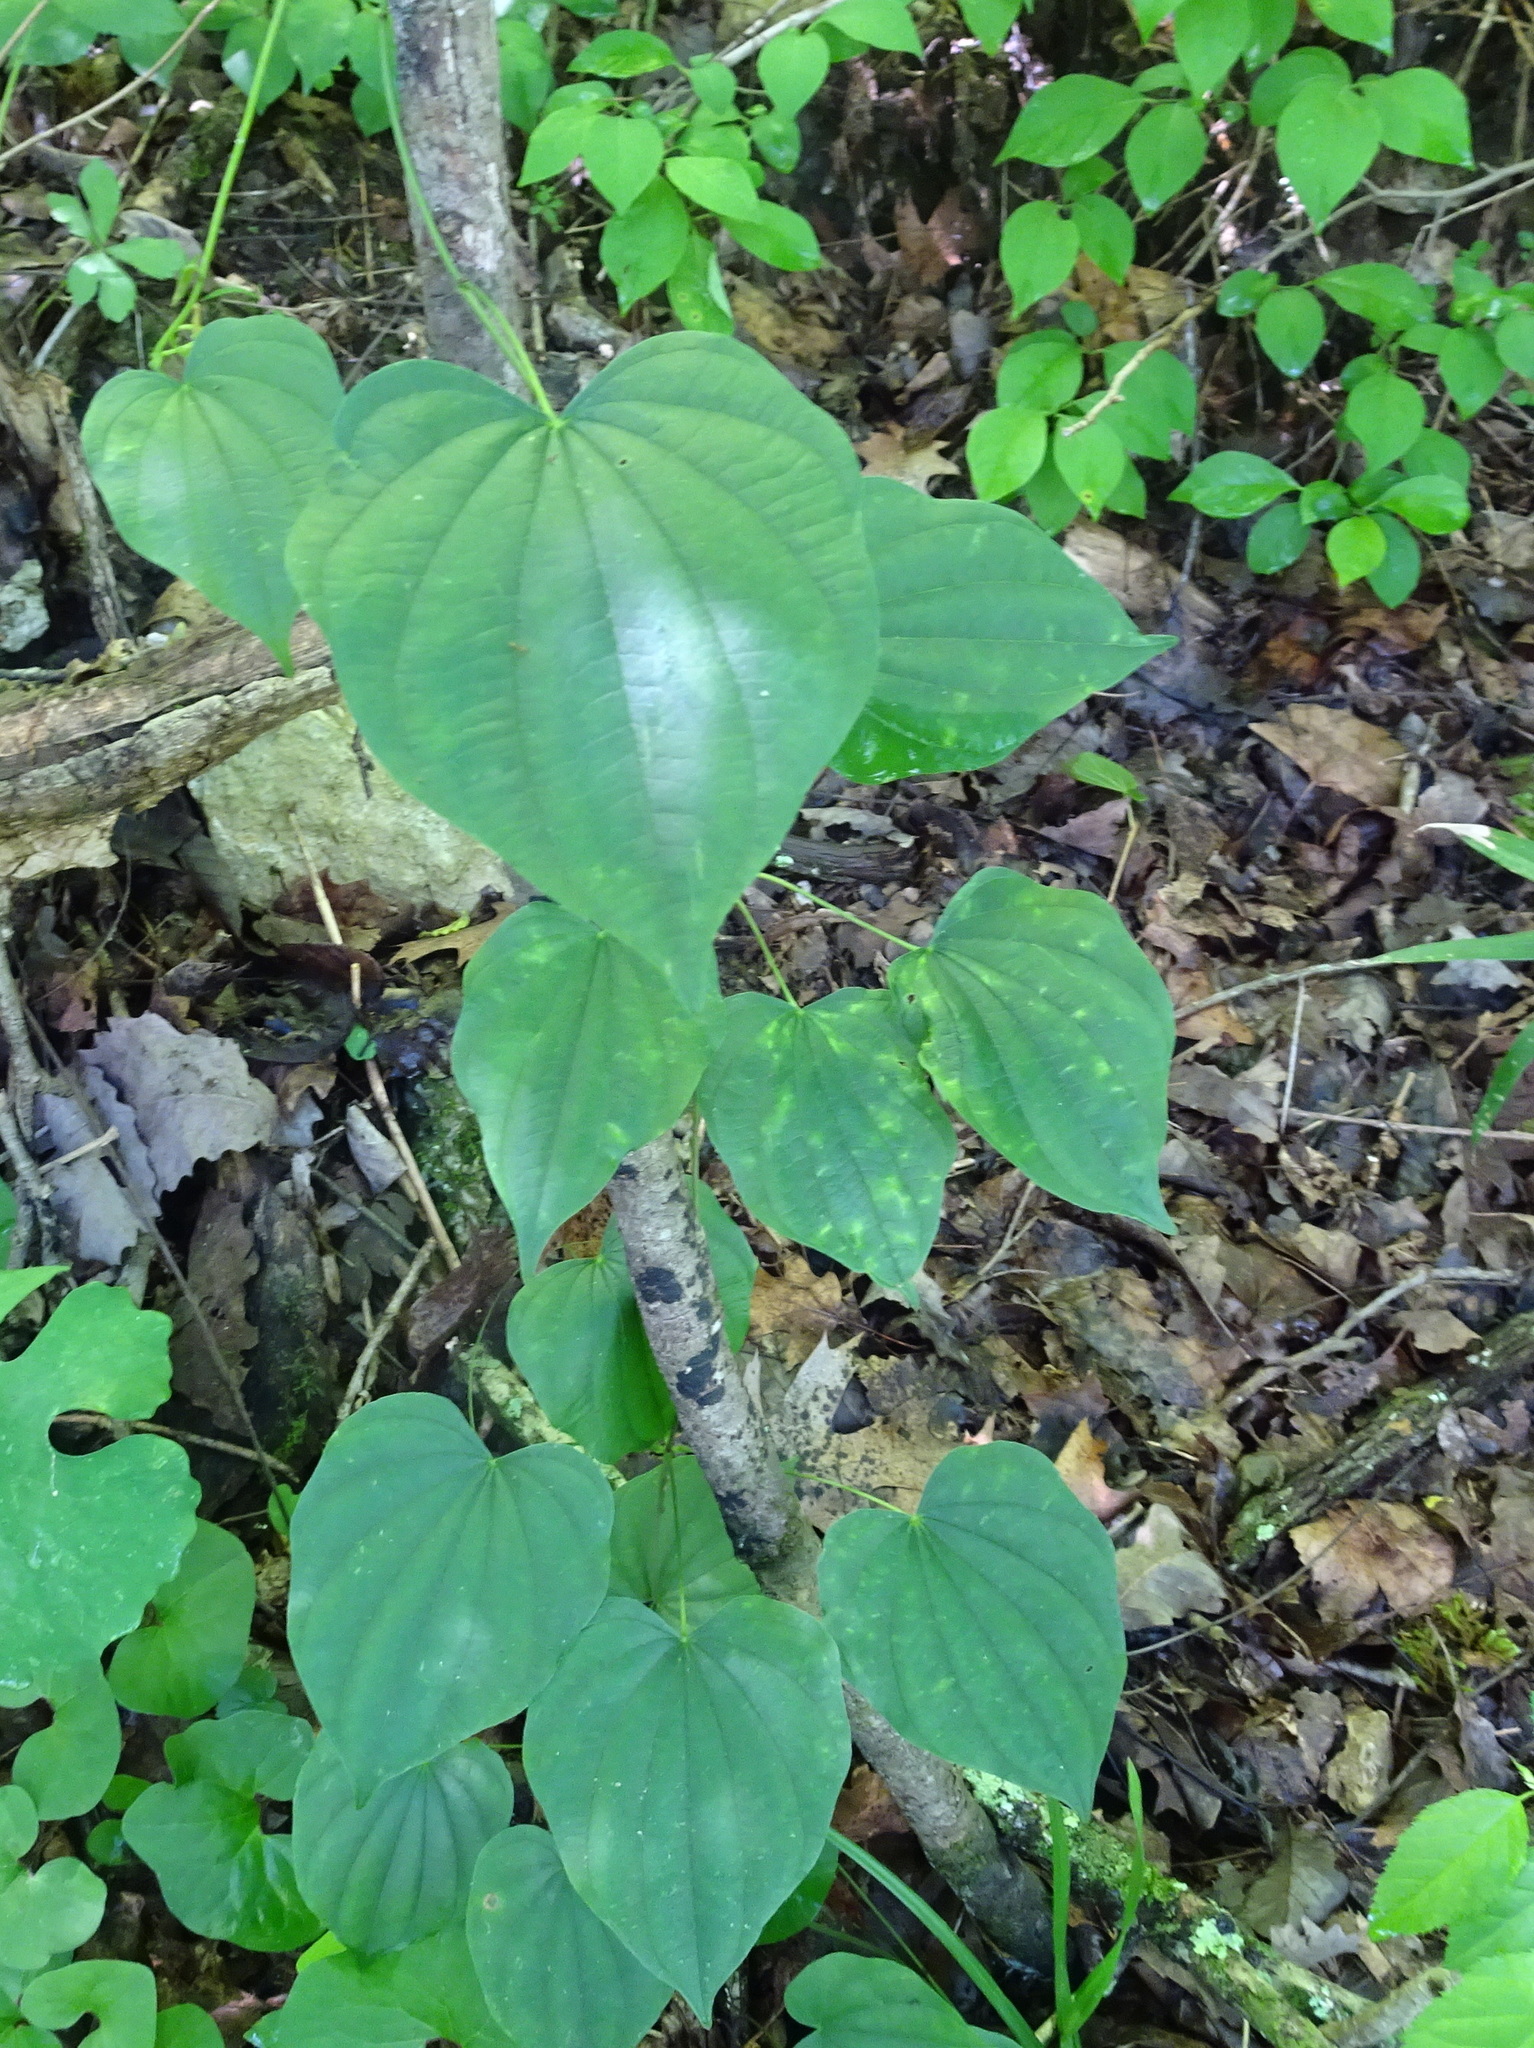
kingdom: Plantae
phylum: Tracheophyta
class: Liliopsida
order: Dioscoreales
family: Dioscoreaceae
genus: Dioscorea
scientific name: Dioscorea villosa
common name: Wild yam
